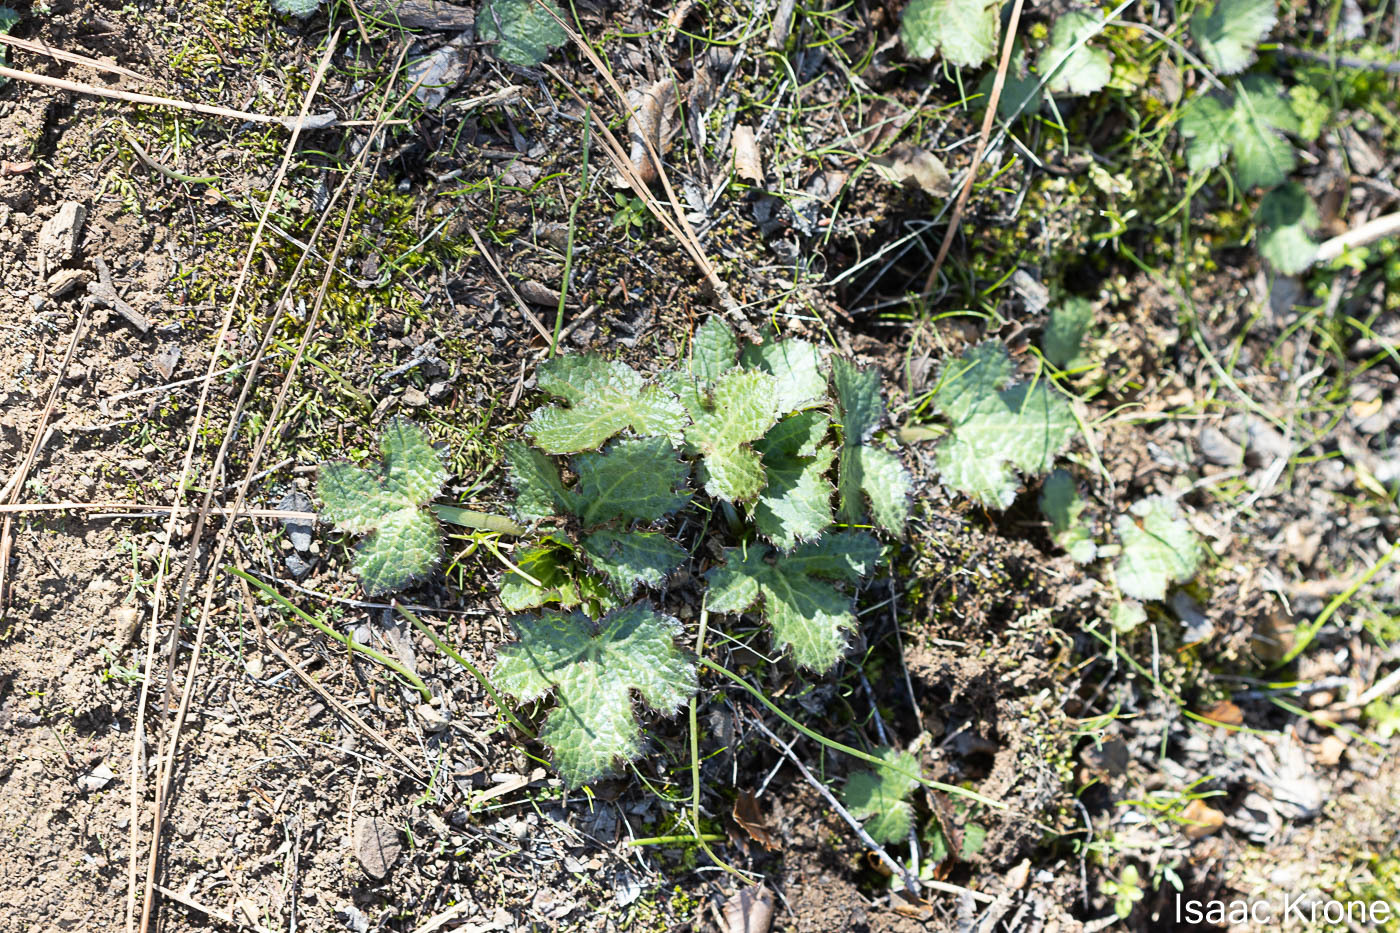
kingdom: Plantae
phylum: Tracheophyta
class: Magnoliopsida
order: Apiales
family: Apiaceae
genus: Sanicula
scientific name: Sanicula crassicaulis
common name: Western snakeroot
